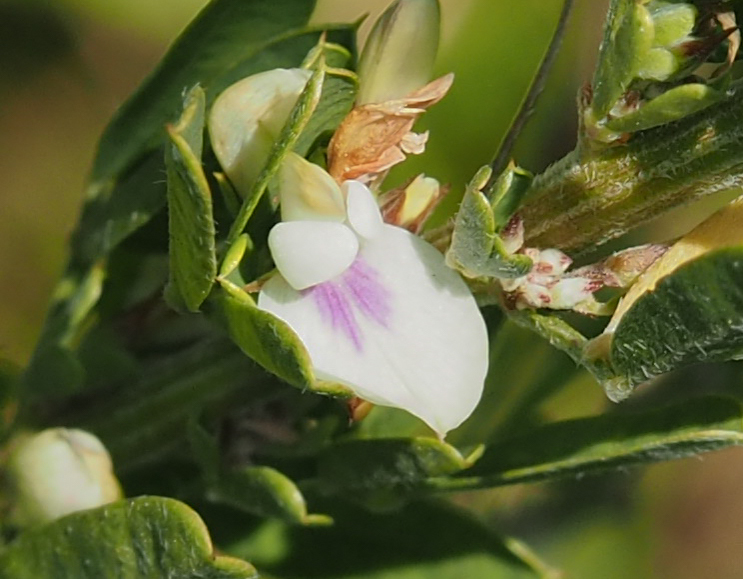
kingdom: Plantae
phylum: Tracheophyta
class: Magnoliopsida
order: Fabales
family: Fabaceae
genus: Lespedeza
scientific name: Lespedeza cuneata
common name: Chinese bush-clover
